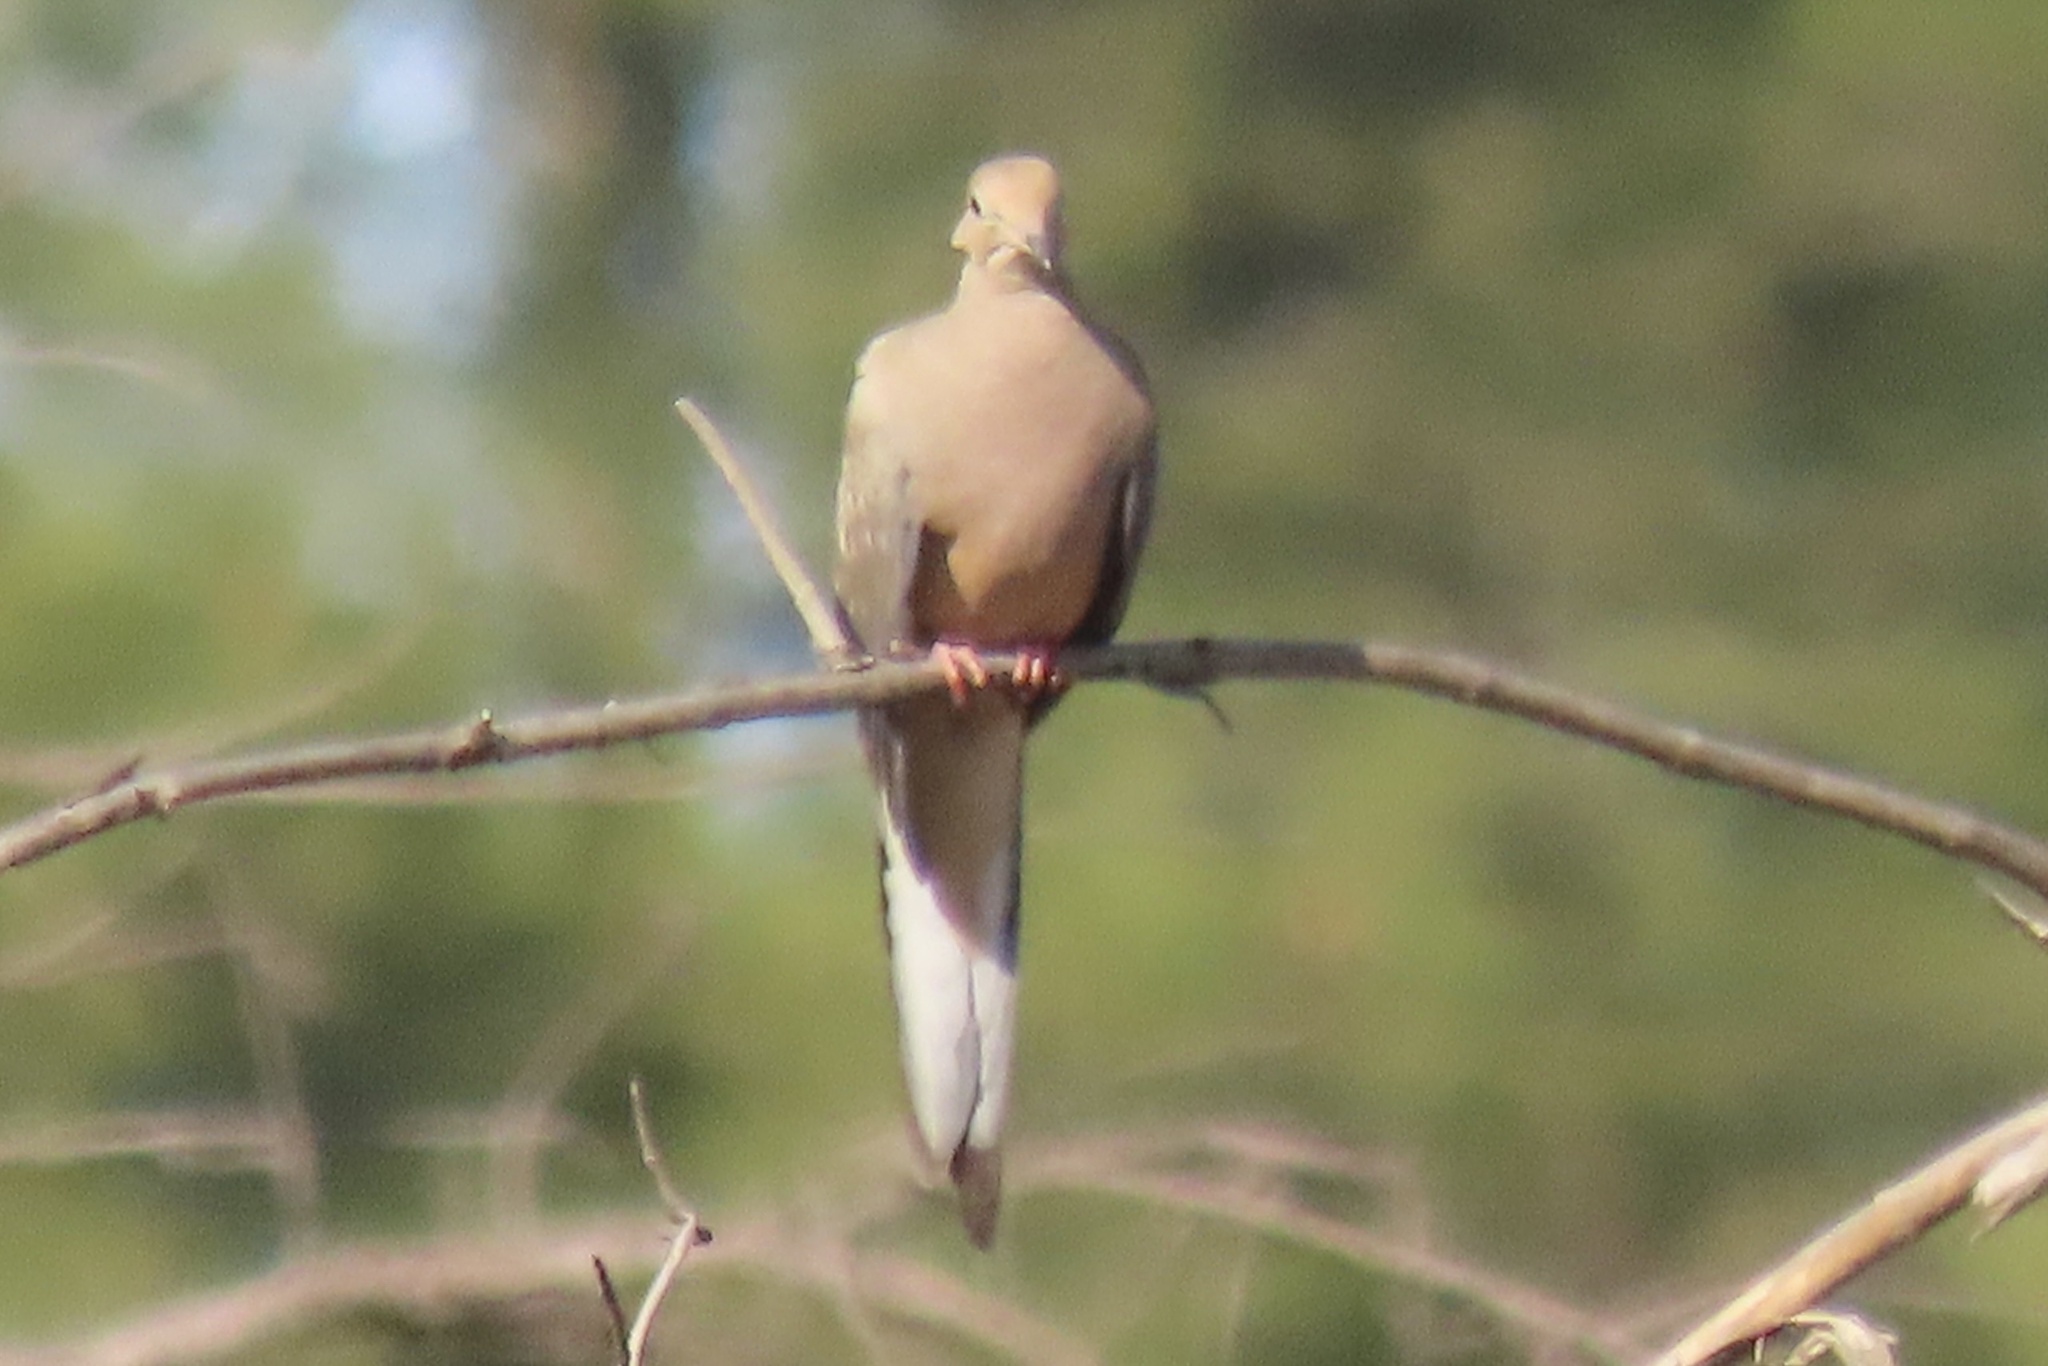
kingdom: Animalia
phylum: Chordata
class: Aves
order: Columbiformes
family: Columbidae
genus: Zenaida
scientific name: Zenaida macroura
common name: Mourning dove
